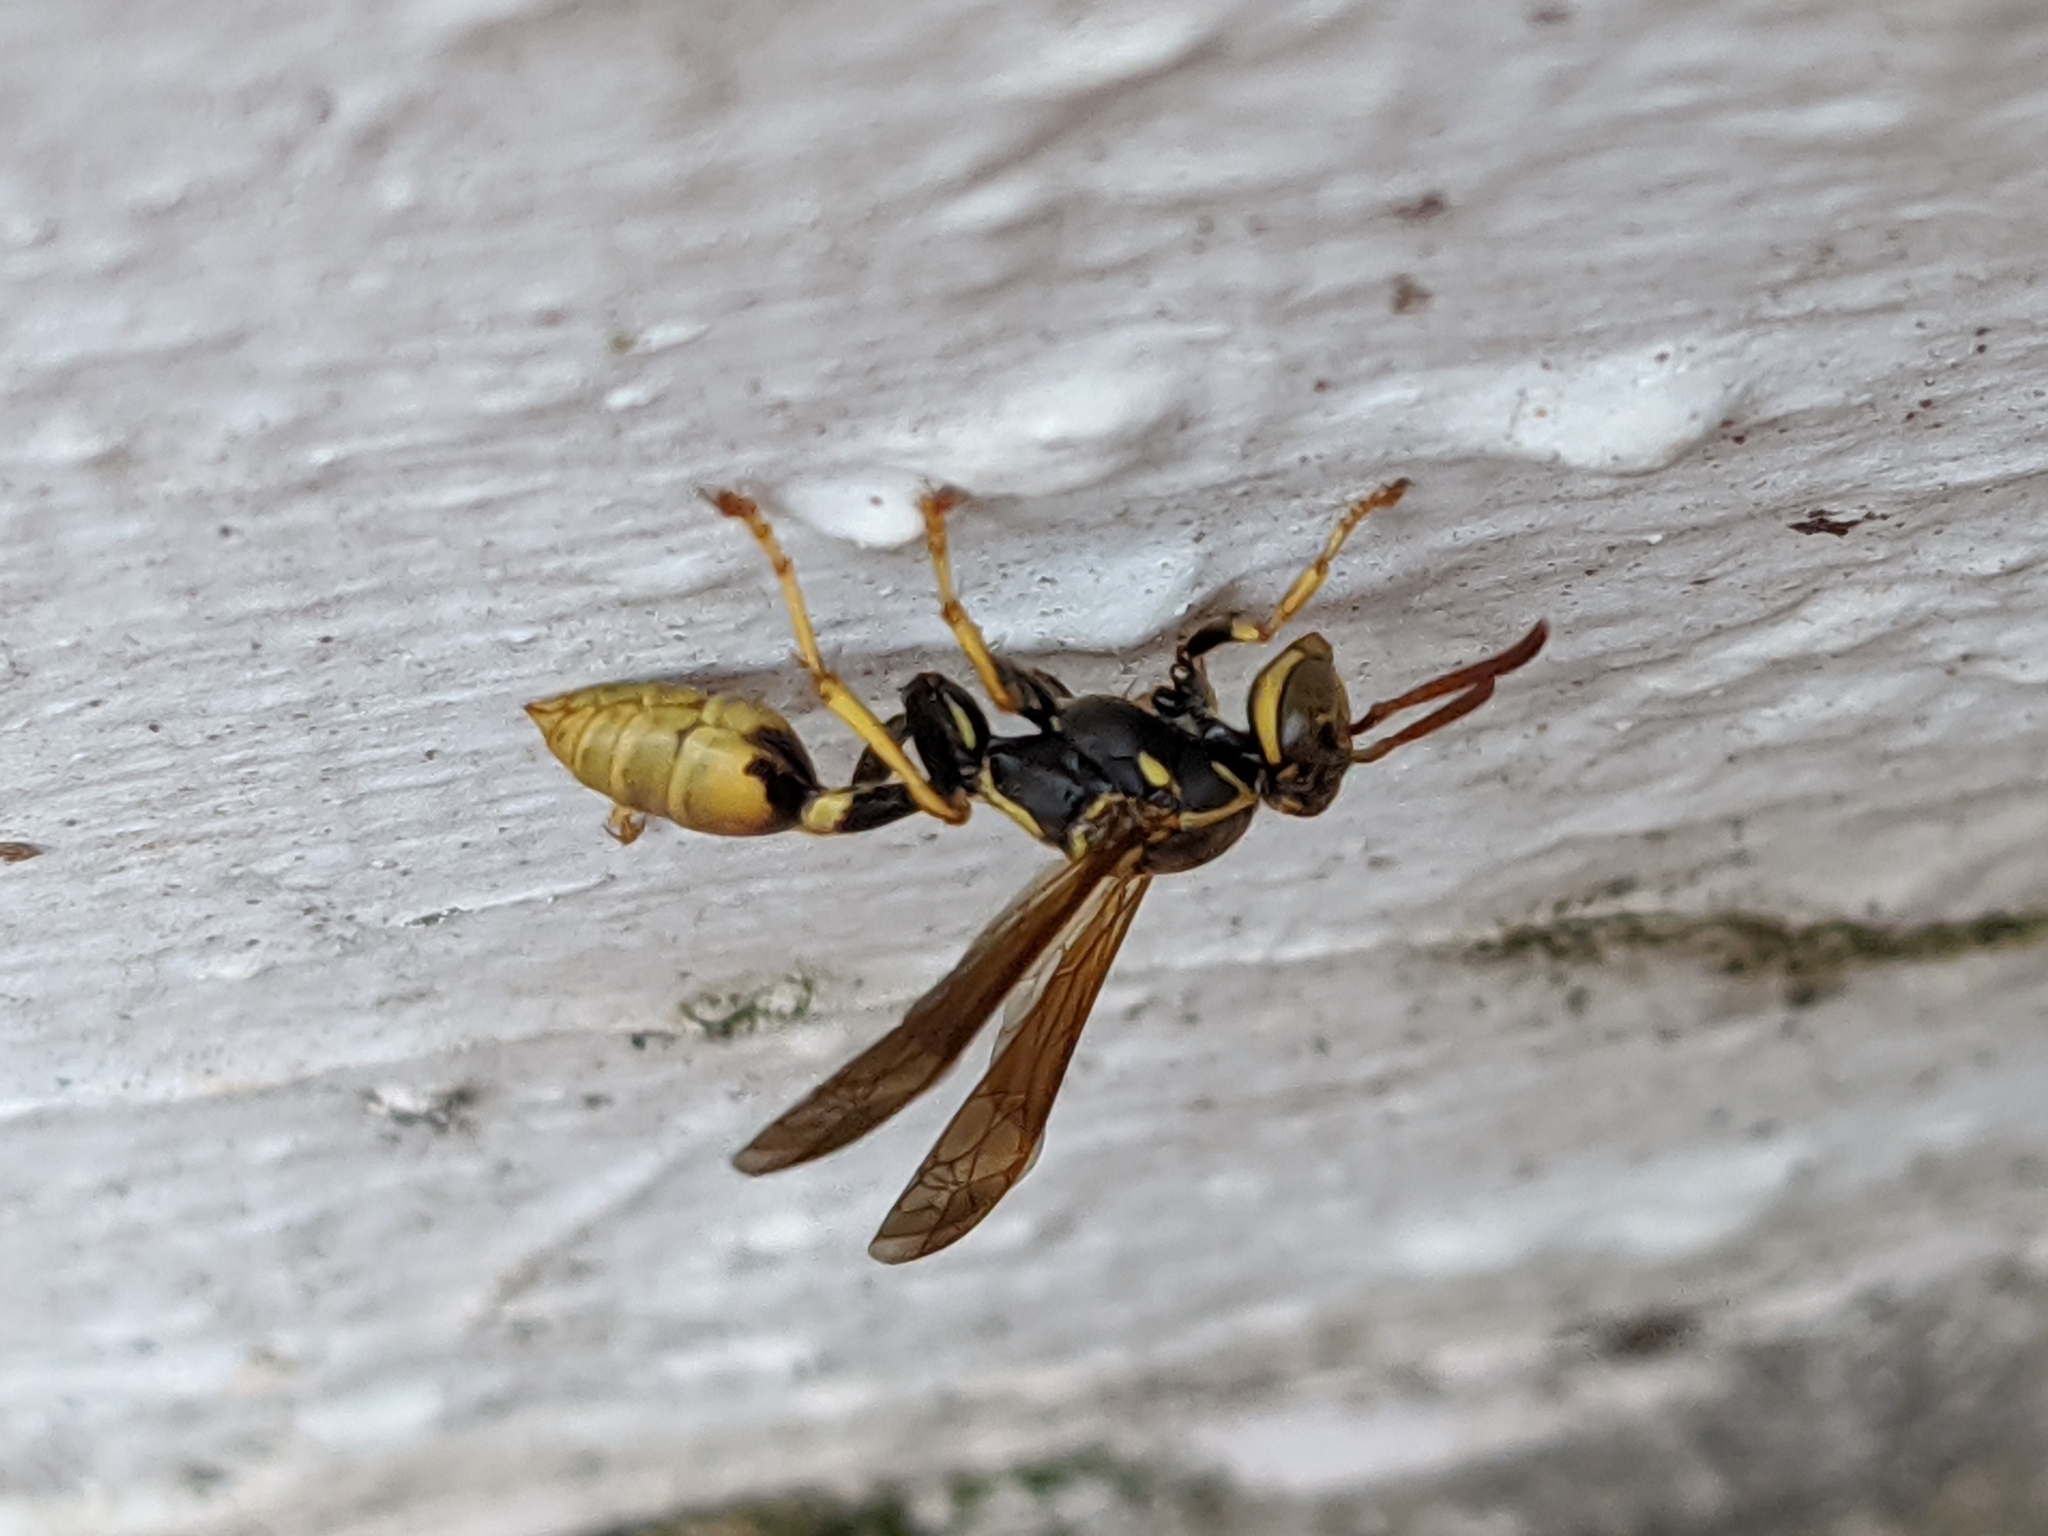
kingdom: Animalia
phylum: Arthropoda
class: Insecta
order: Hymenoptera
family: Vespidae
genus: Mischocyttarus
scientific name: Mischocyttarus flavitarsis
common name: Wasp
